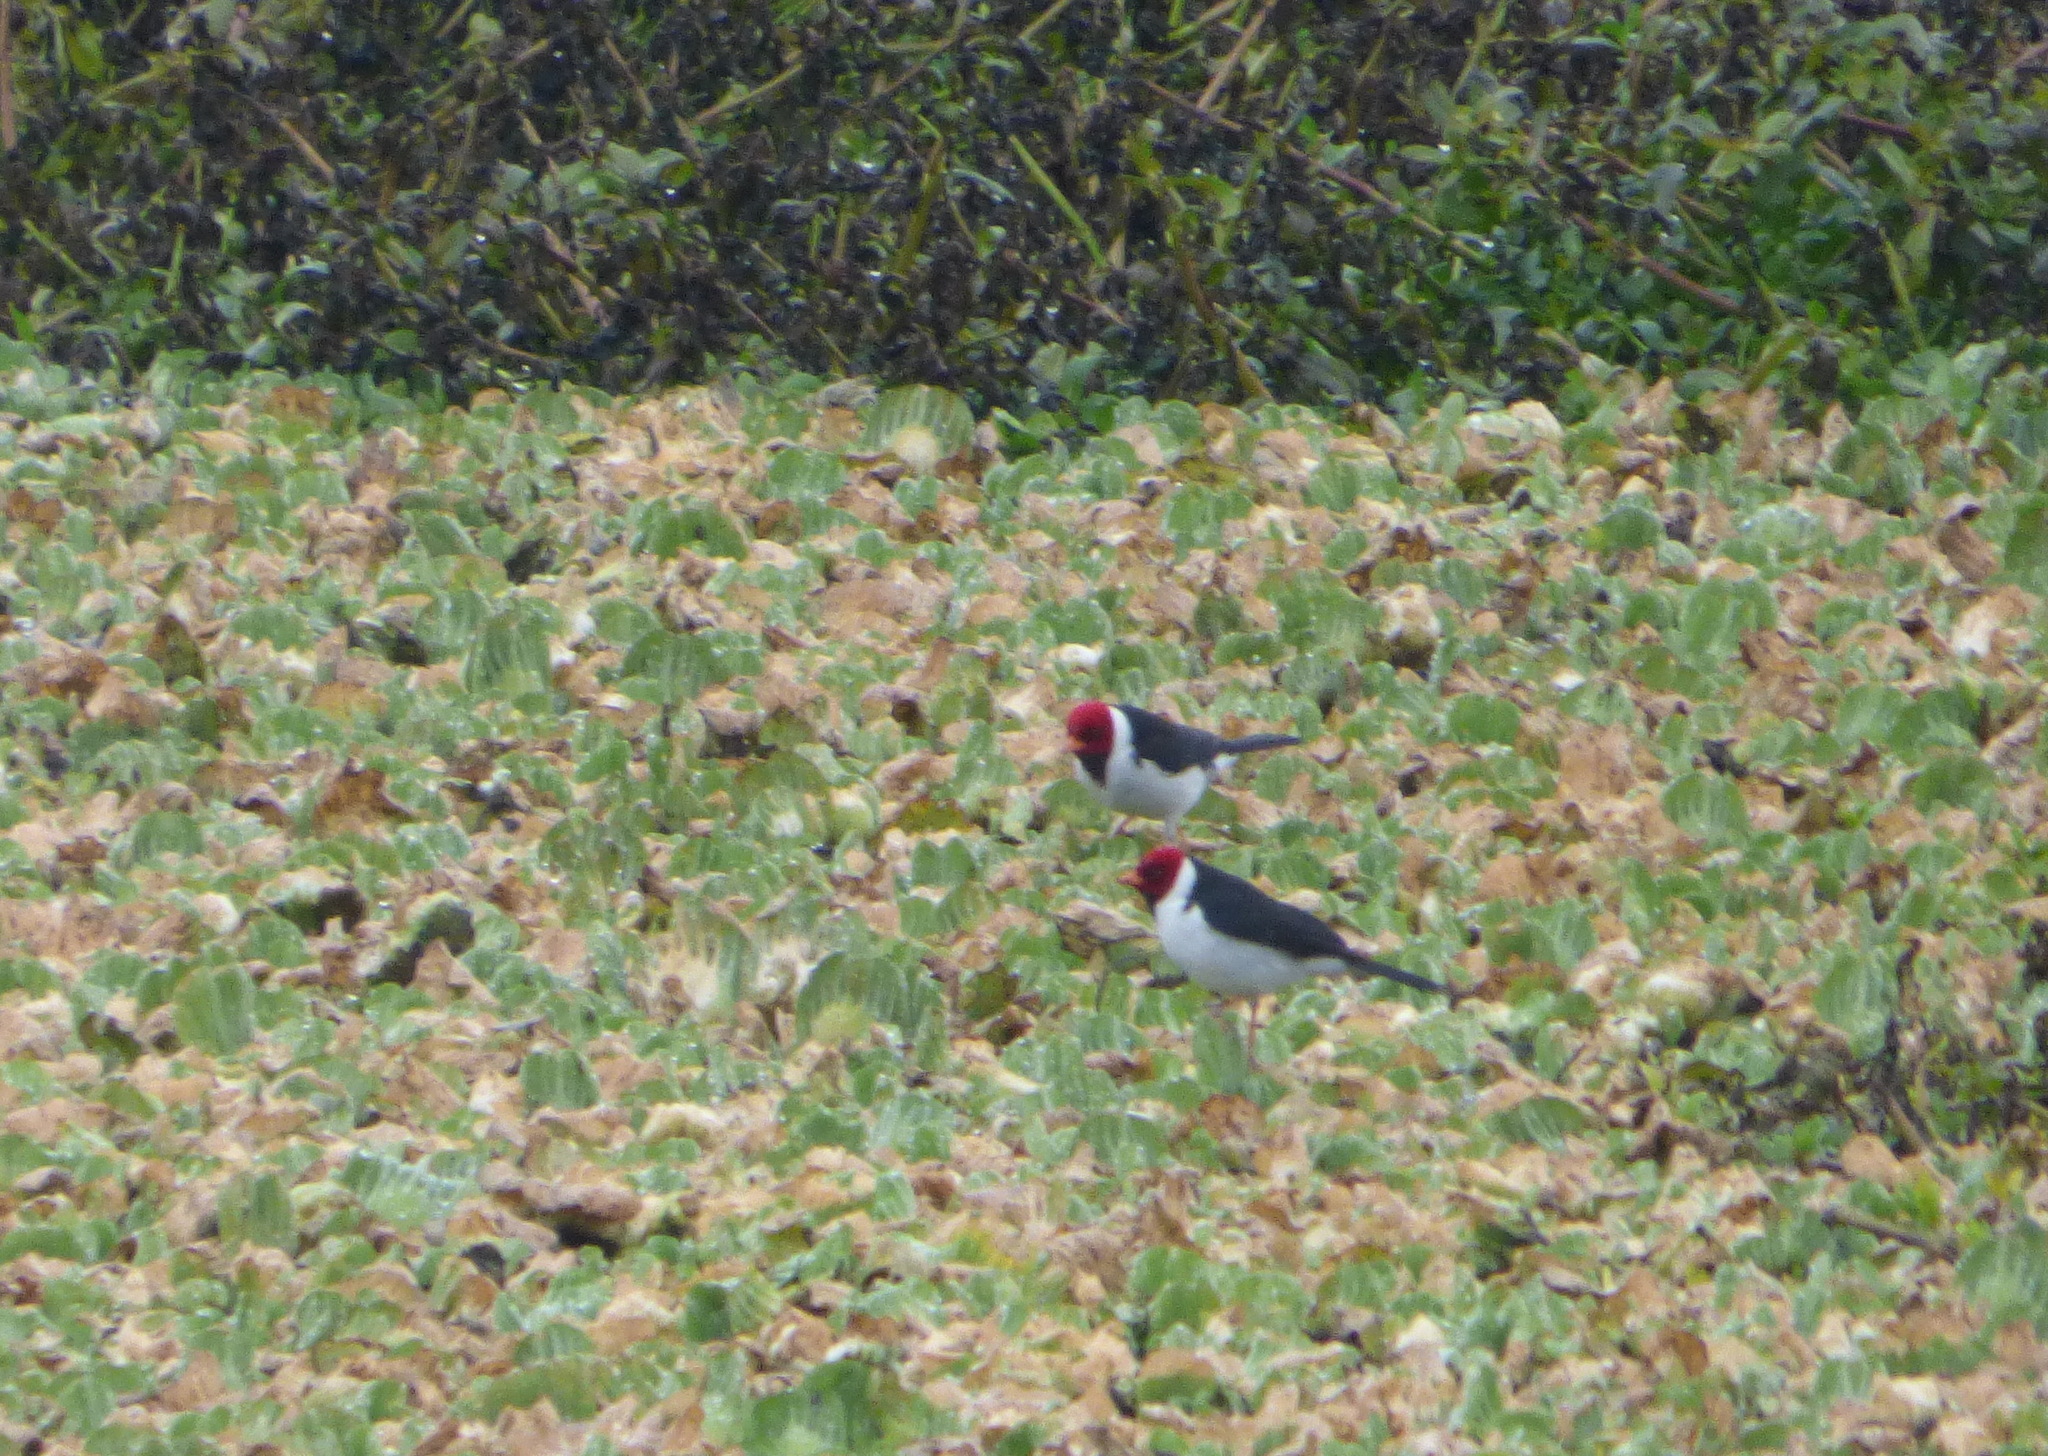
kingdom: Animalia
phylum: Chordata
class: Aves
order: Passeriformes
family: Thraupidae
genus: Paroaria
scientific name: Paroaria capitata
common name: Yellow-billed cardinal
